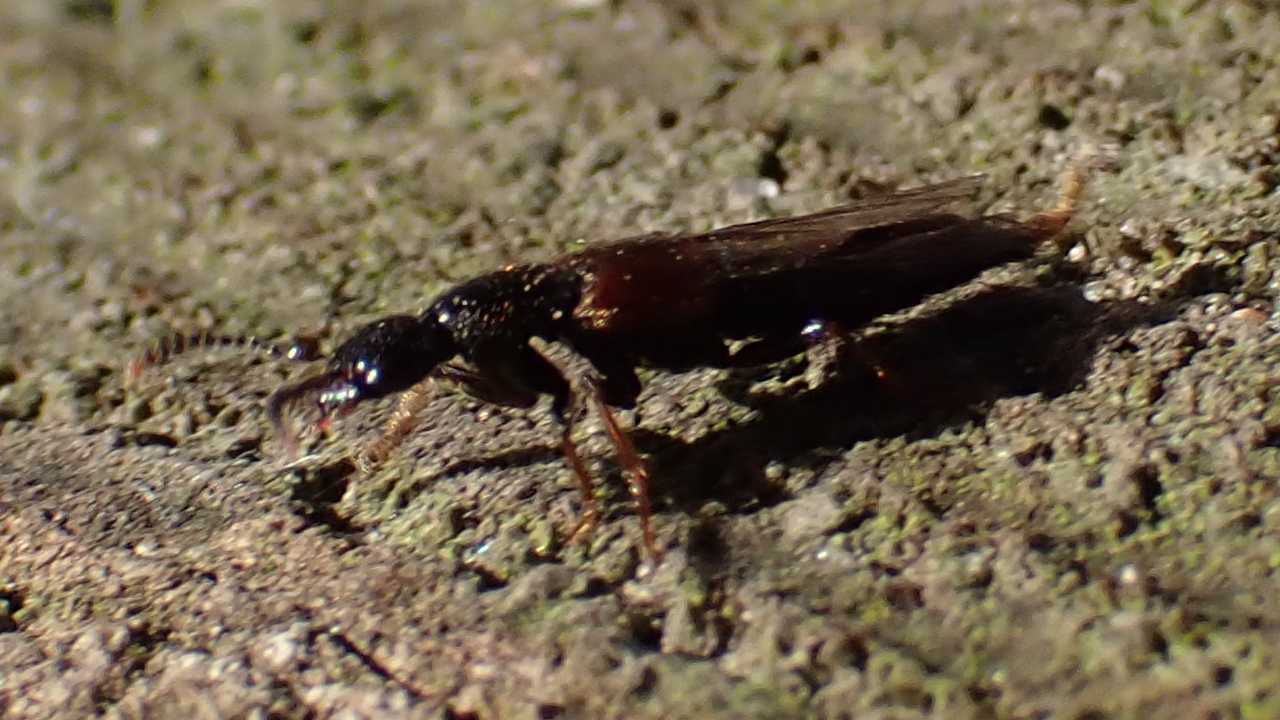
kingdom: Animalia
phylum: Arthropoda
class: Insecta
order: Coleoptera
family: Staphylinidae
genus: Hesperus
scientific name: Hesperus rufipennis
